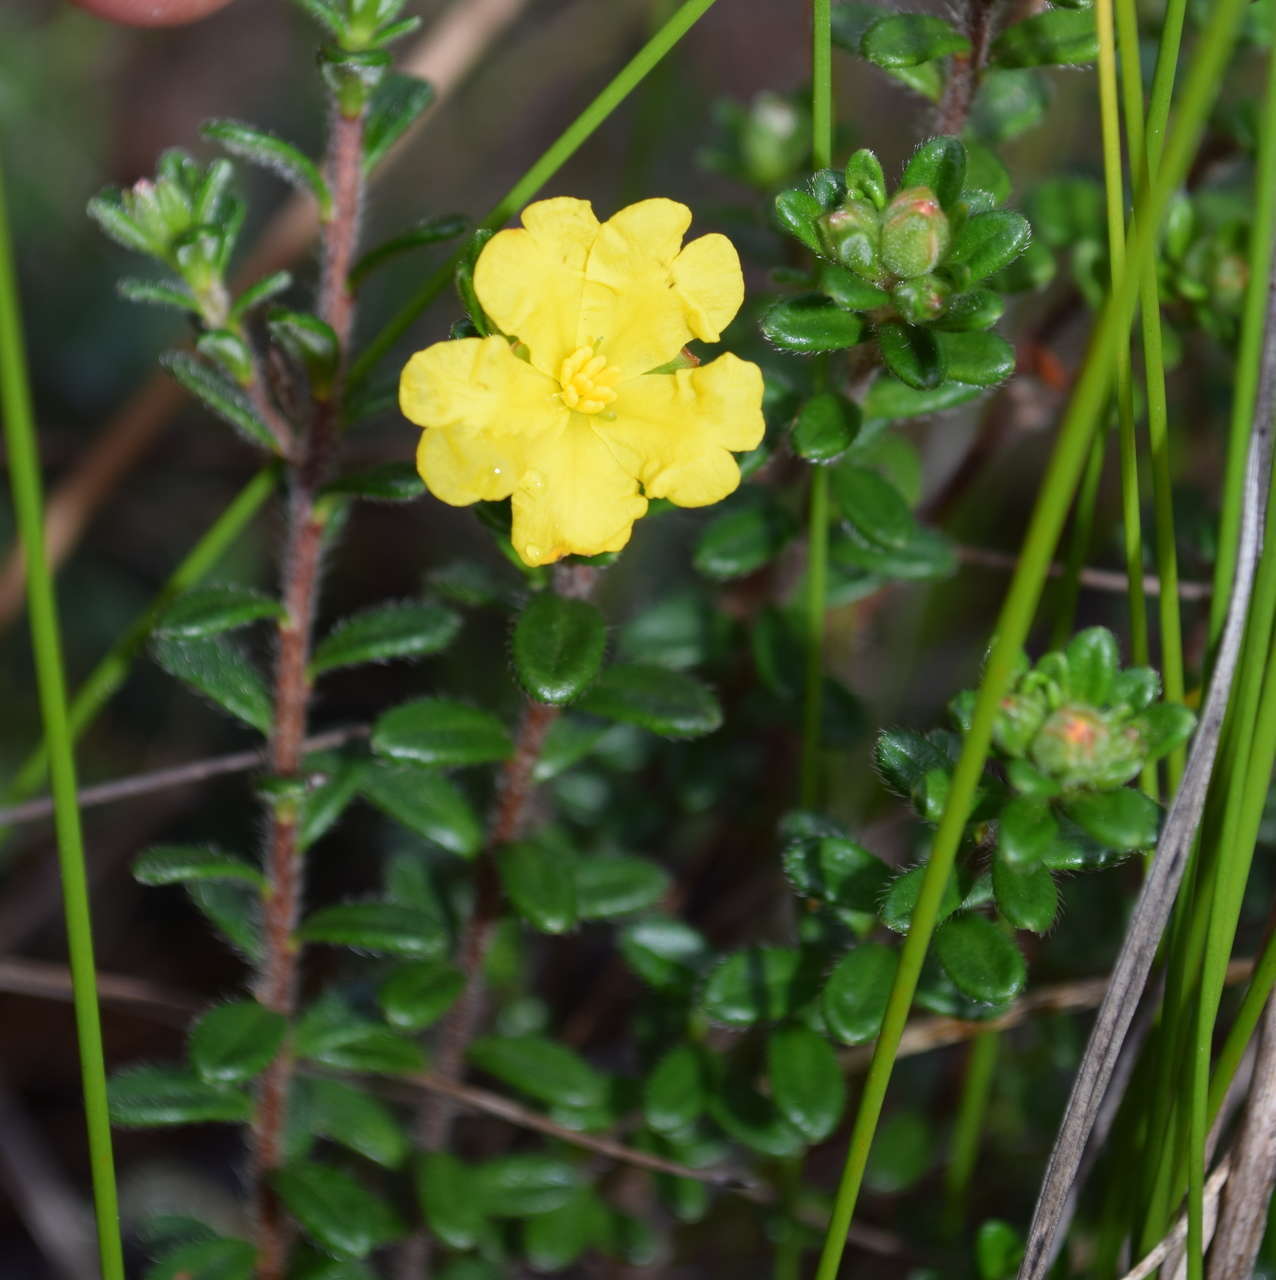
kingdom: Plantae
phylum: Tracheophyta
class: Magnoliopsida
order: Dilleniales
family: Dilleniaceae
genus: Hibbertia
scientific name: Hibbertia sericea
